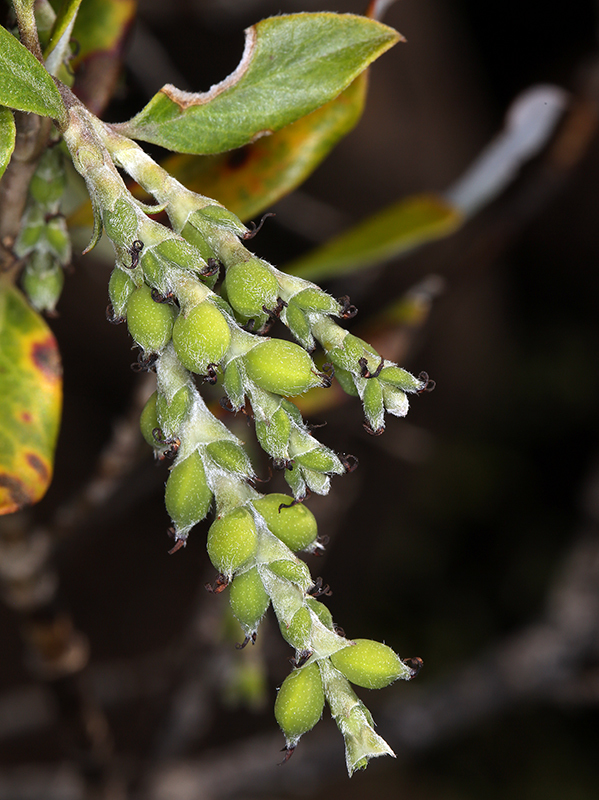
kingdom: Plantae
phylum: Tracheophyta
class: Magnoliopsida
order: Garryales
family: Garryaceae
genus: Garrya
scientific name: Garrya buxifolia
